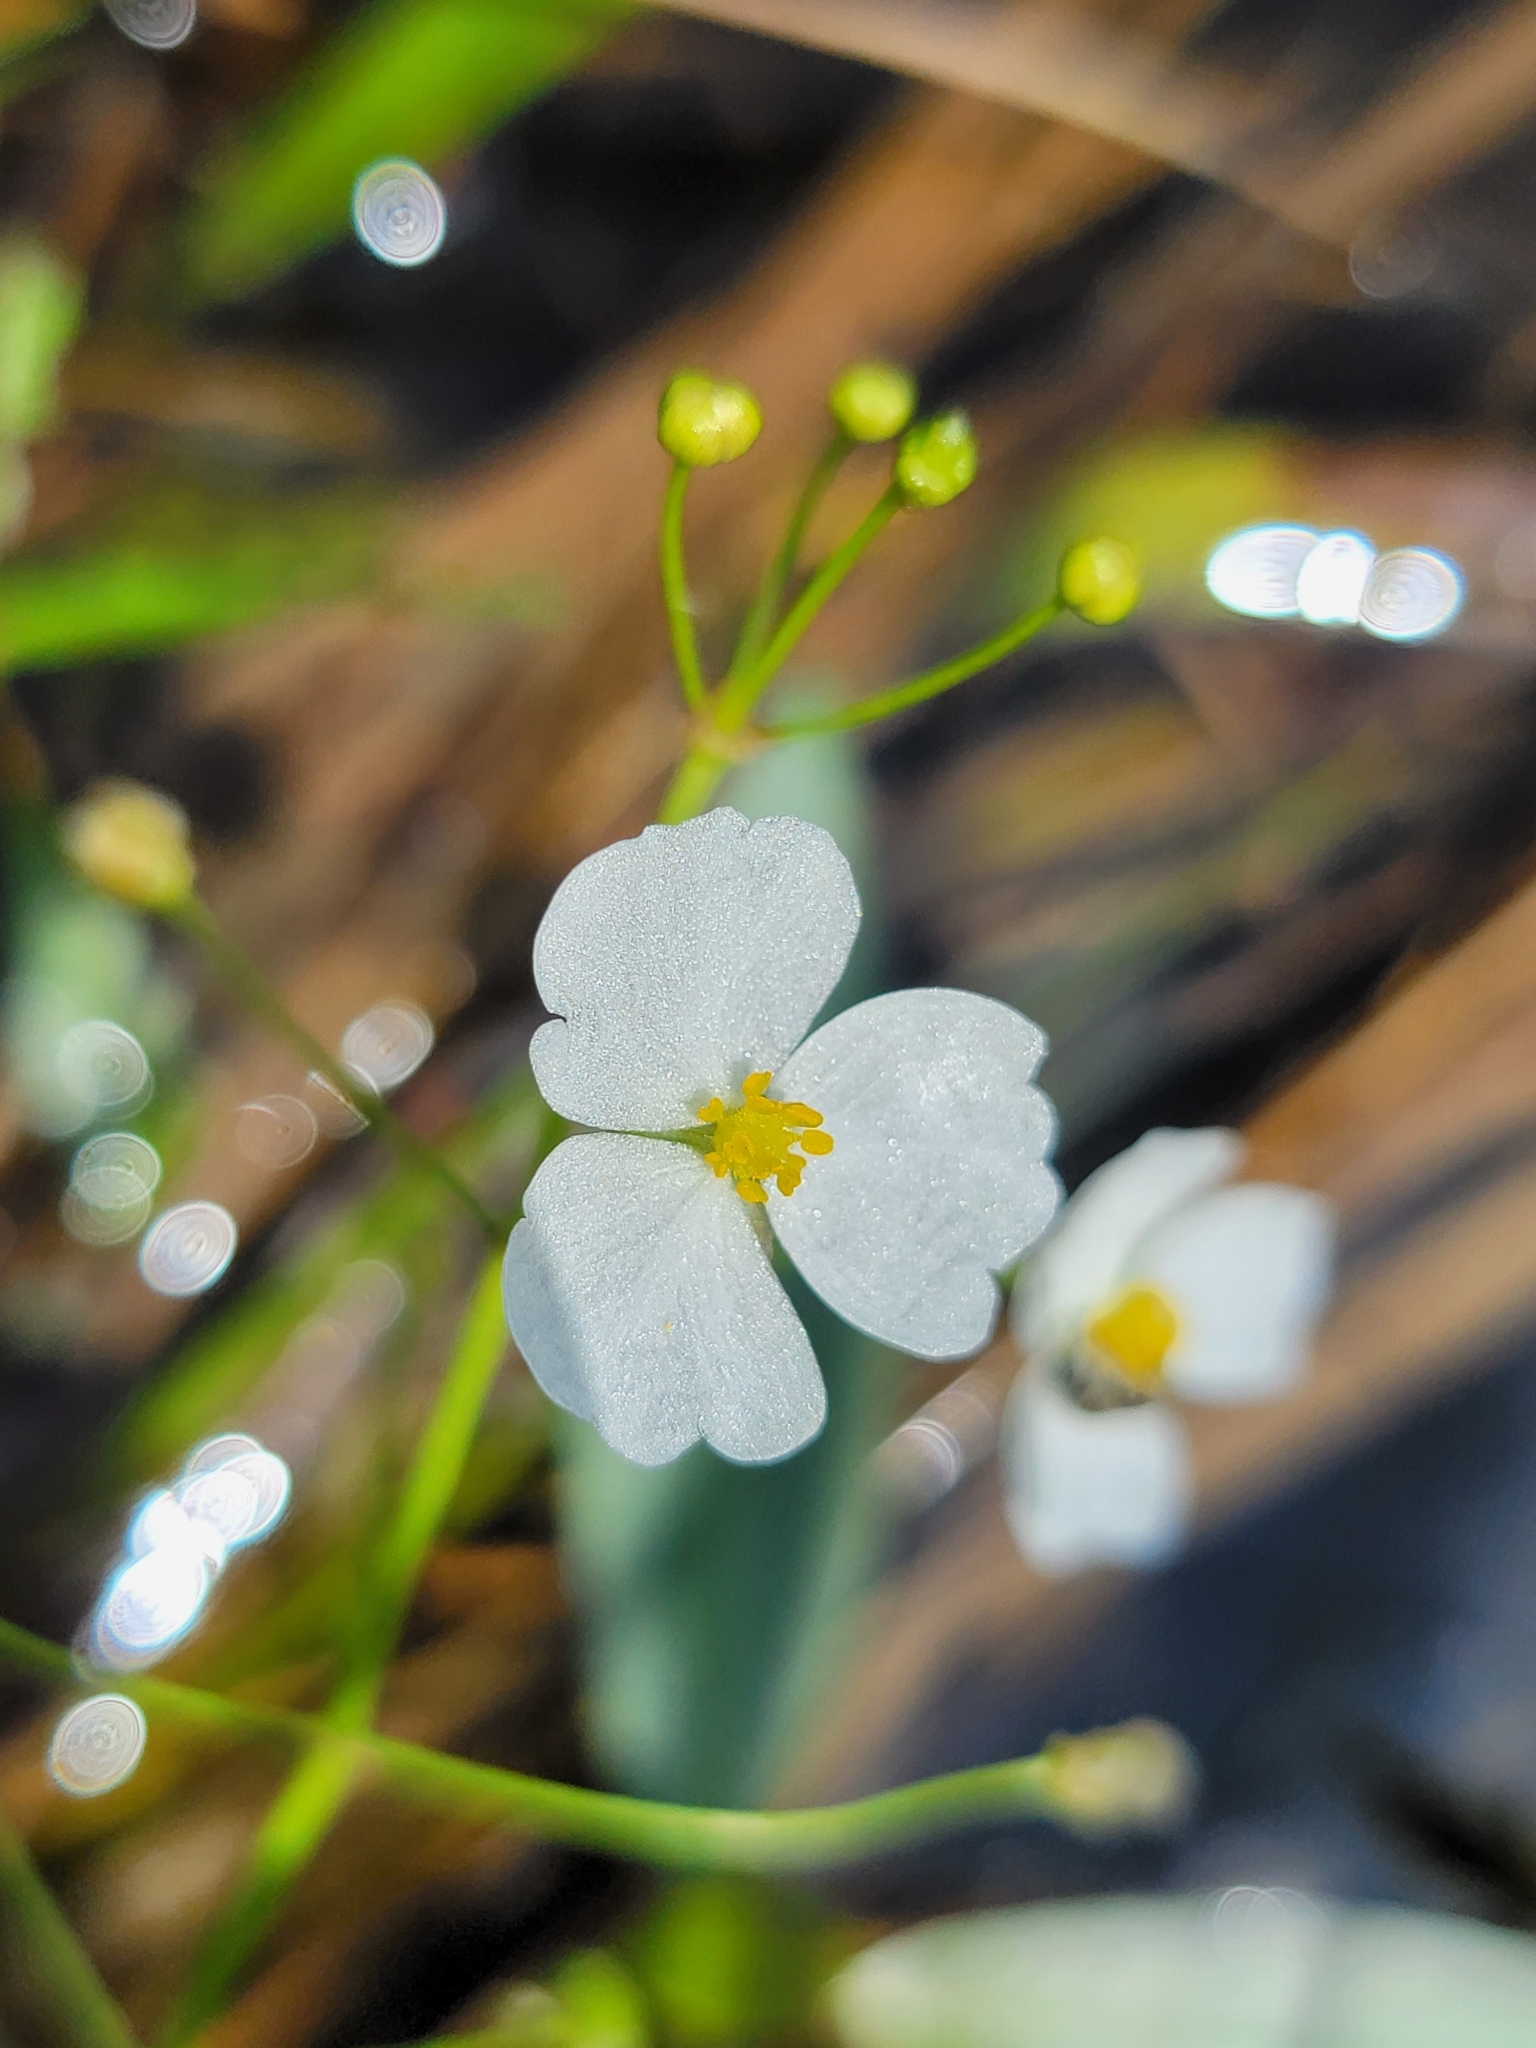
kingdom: Plantae
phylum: Tracheophyta
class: Liliopsida
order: Alismatales
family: Alismataceae
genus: Sagittaria
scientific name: Sagittaria graminea
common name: Grass-leaved arrowhead
